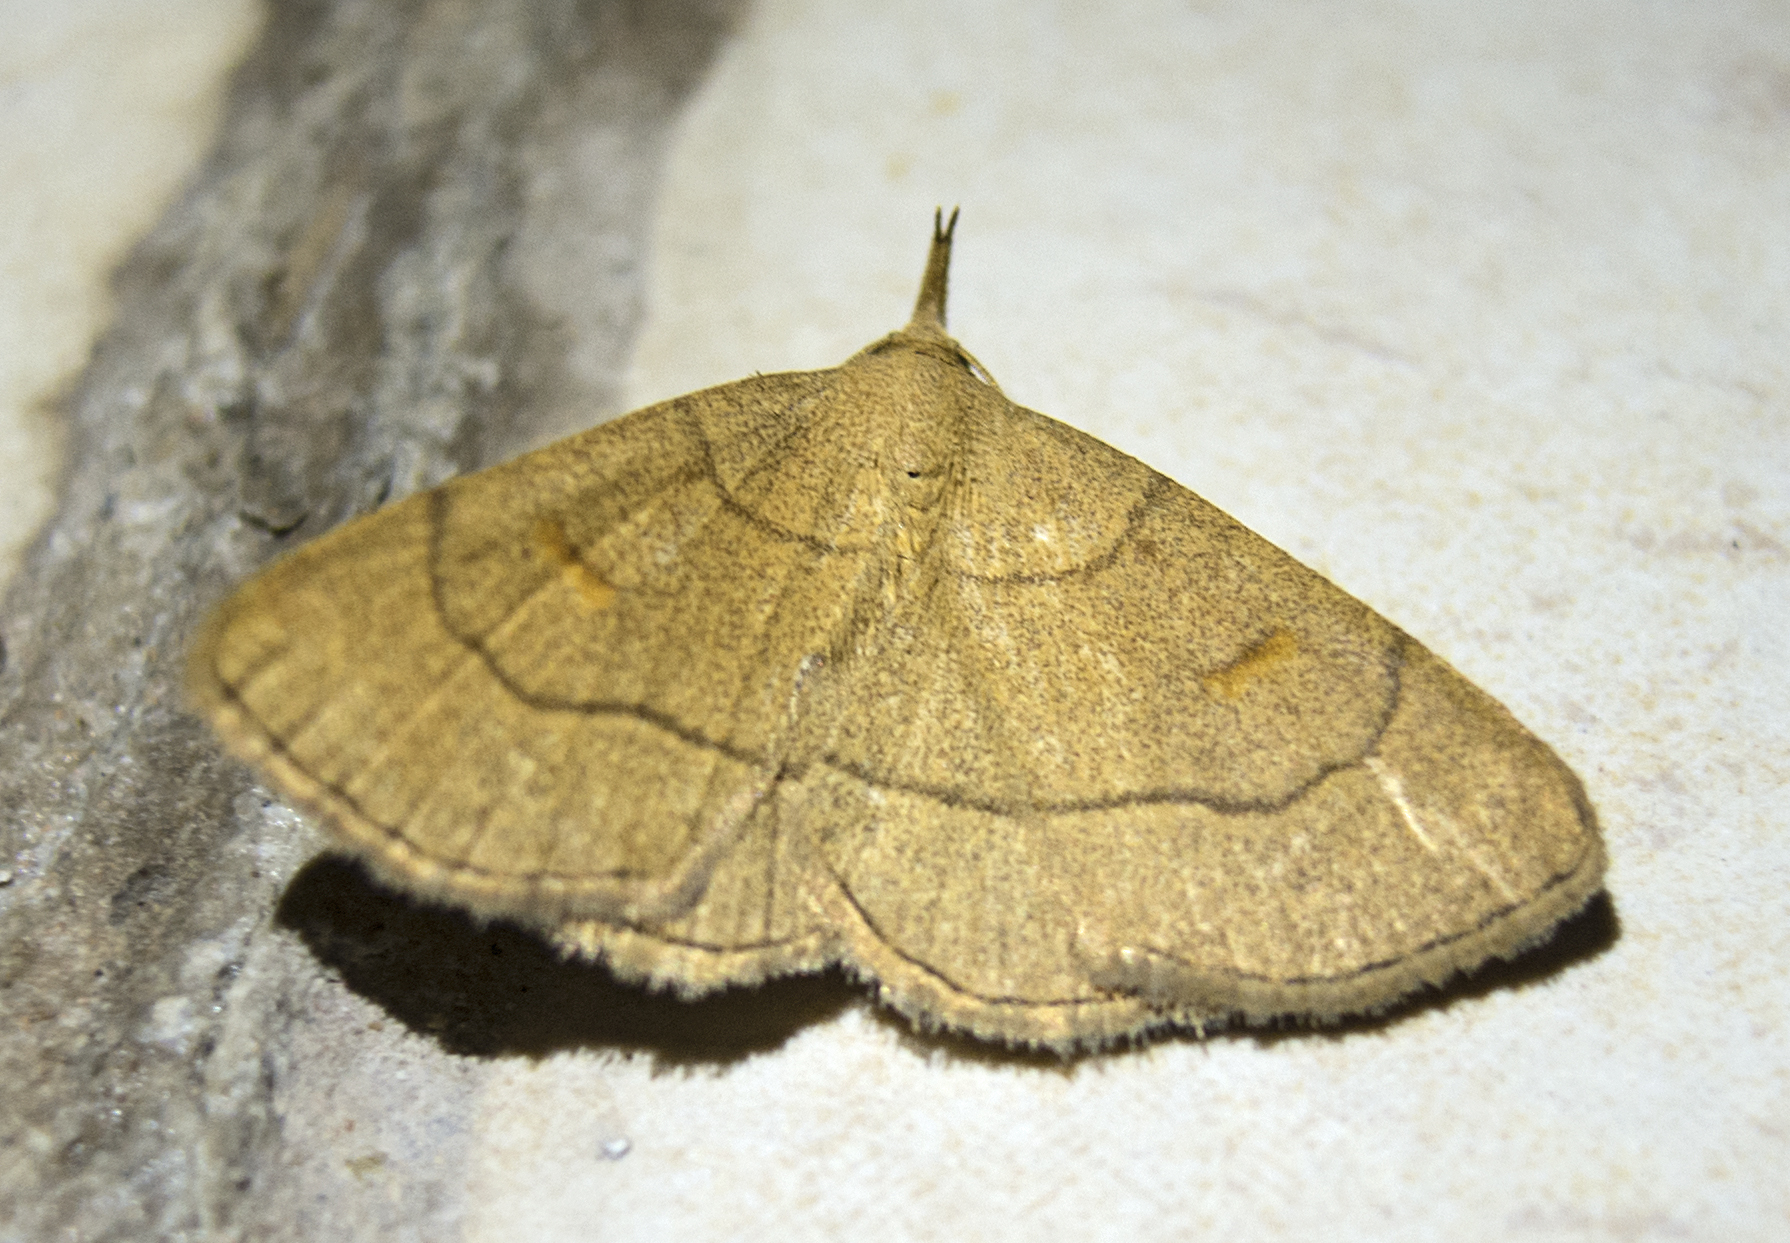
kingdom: Animalia
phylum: Arthropoda
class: Insecta
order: Lepidoptera
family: Erebidae
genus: Paracolax
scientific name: Paracolax tristalis
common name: Clay fan-foot
